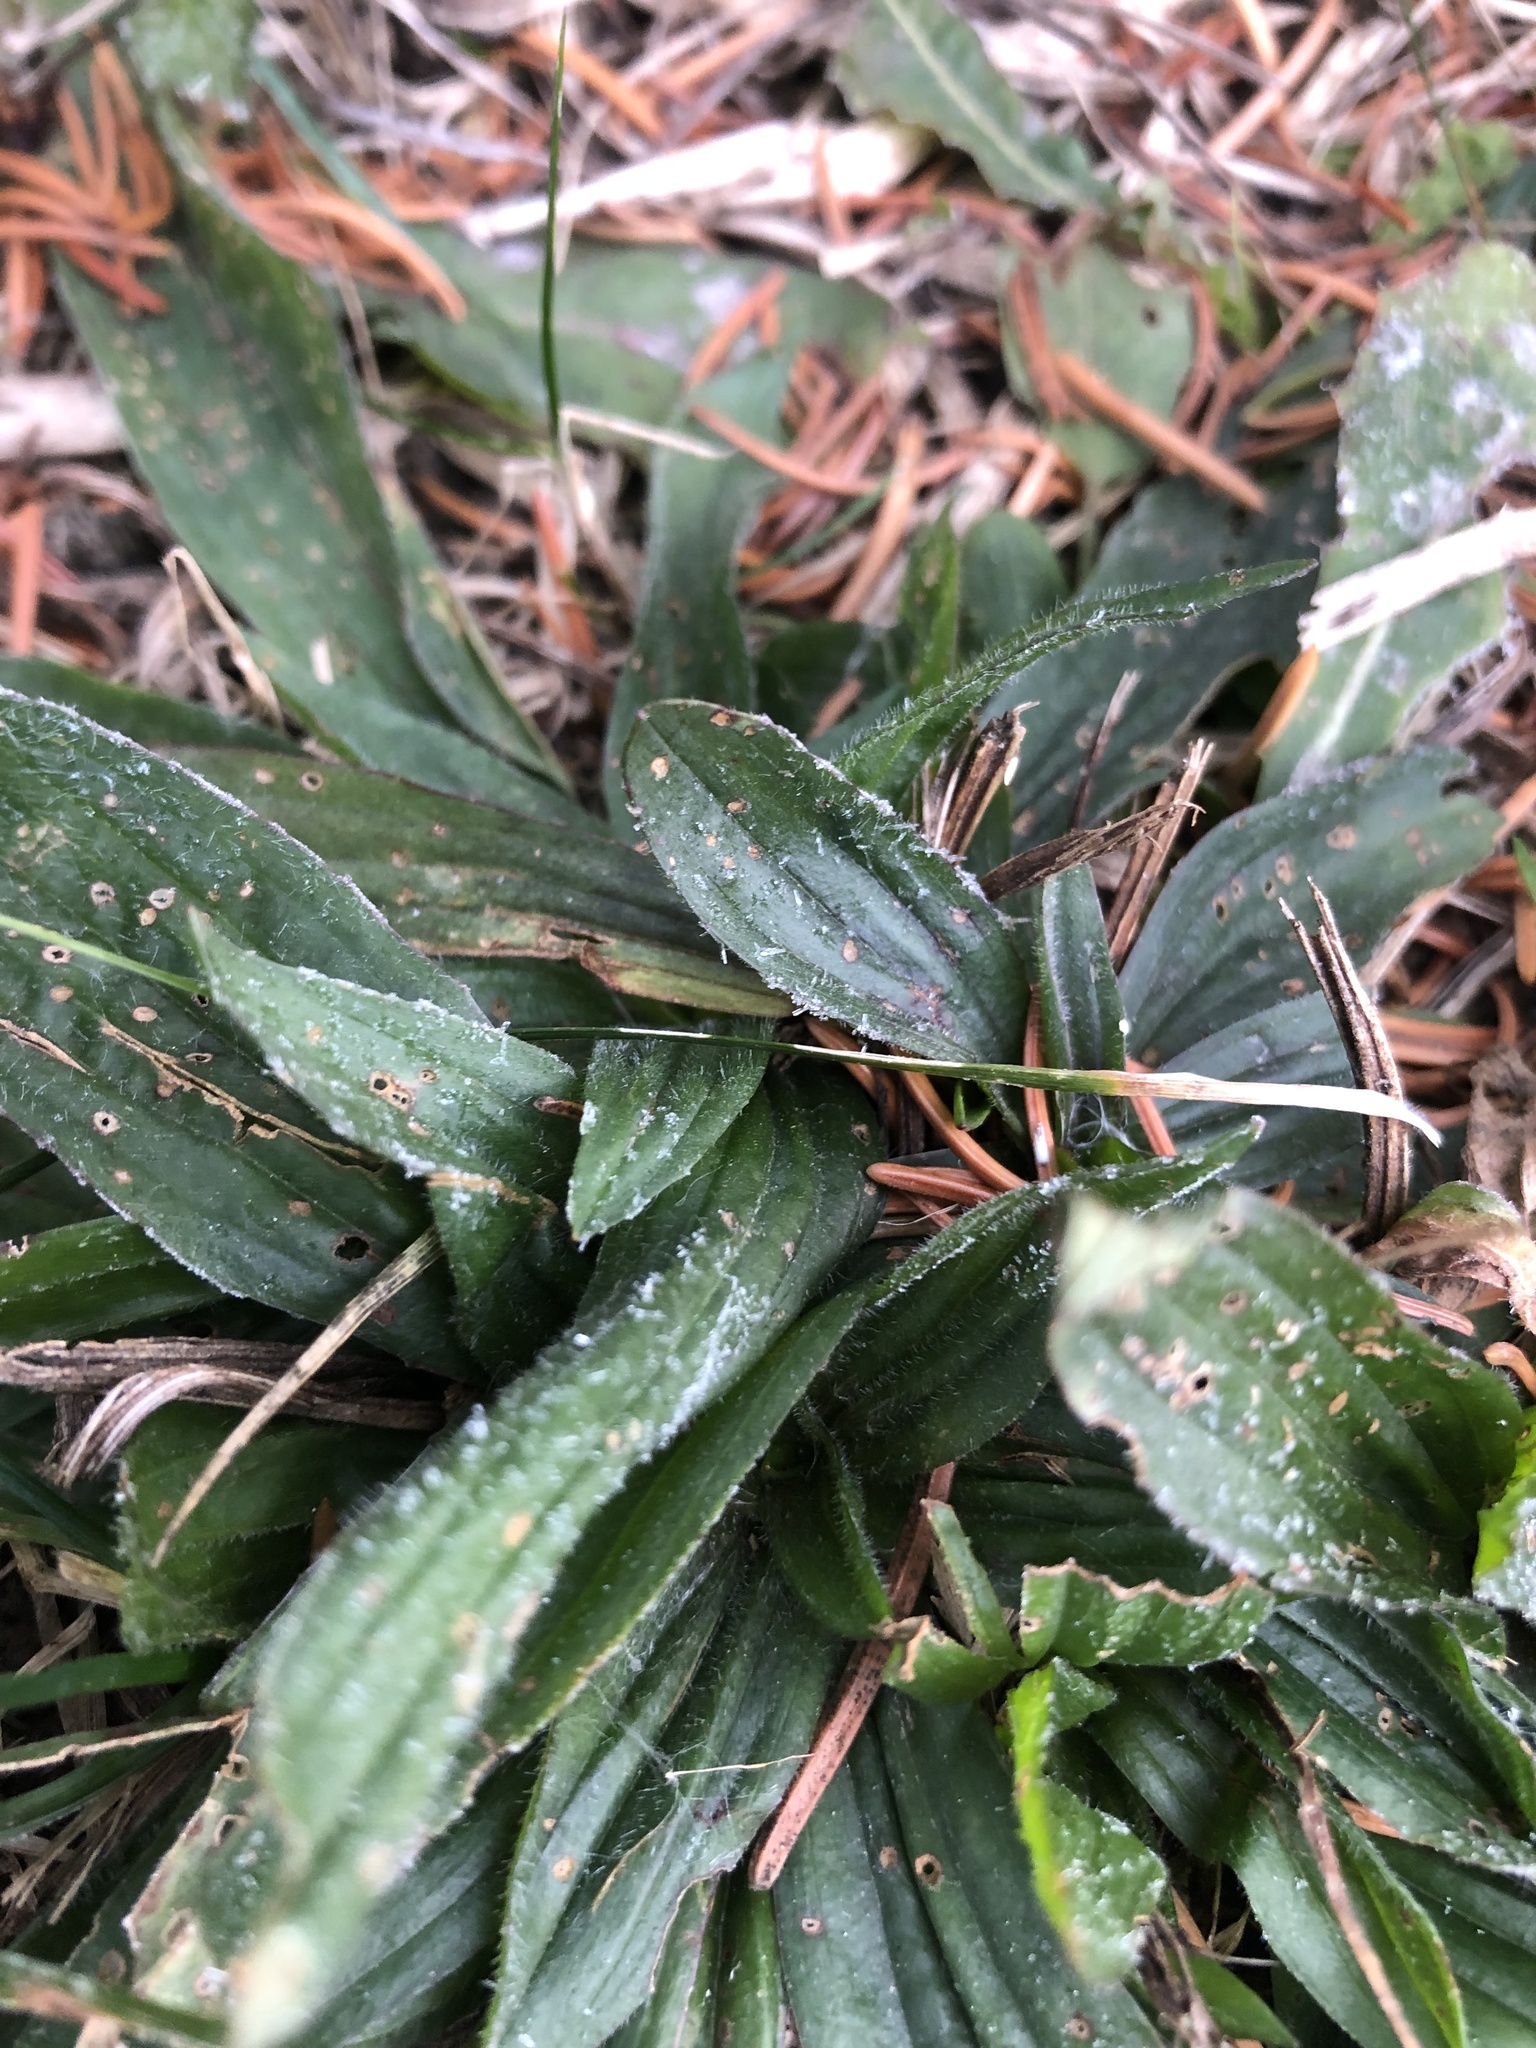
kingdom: Plantae
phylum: Tracheophyta
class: Magnoliopsida
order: Lamiales
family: Plantaginaceae
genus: Plantago
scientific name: Plantago lanceolata
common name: Ribwort plantain
